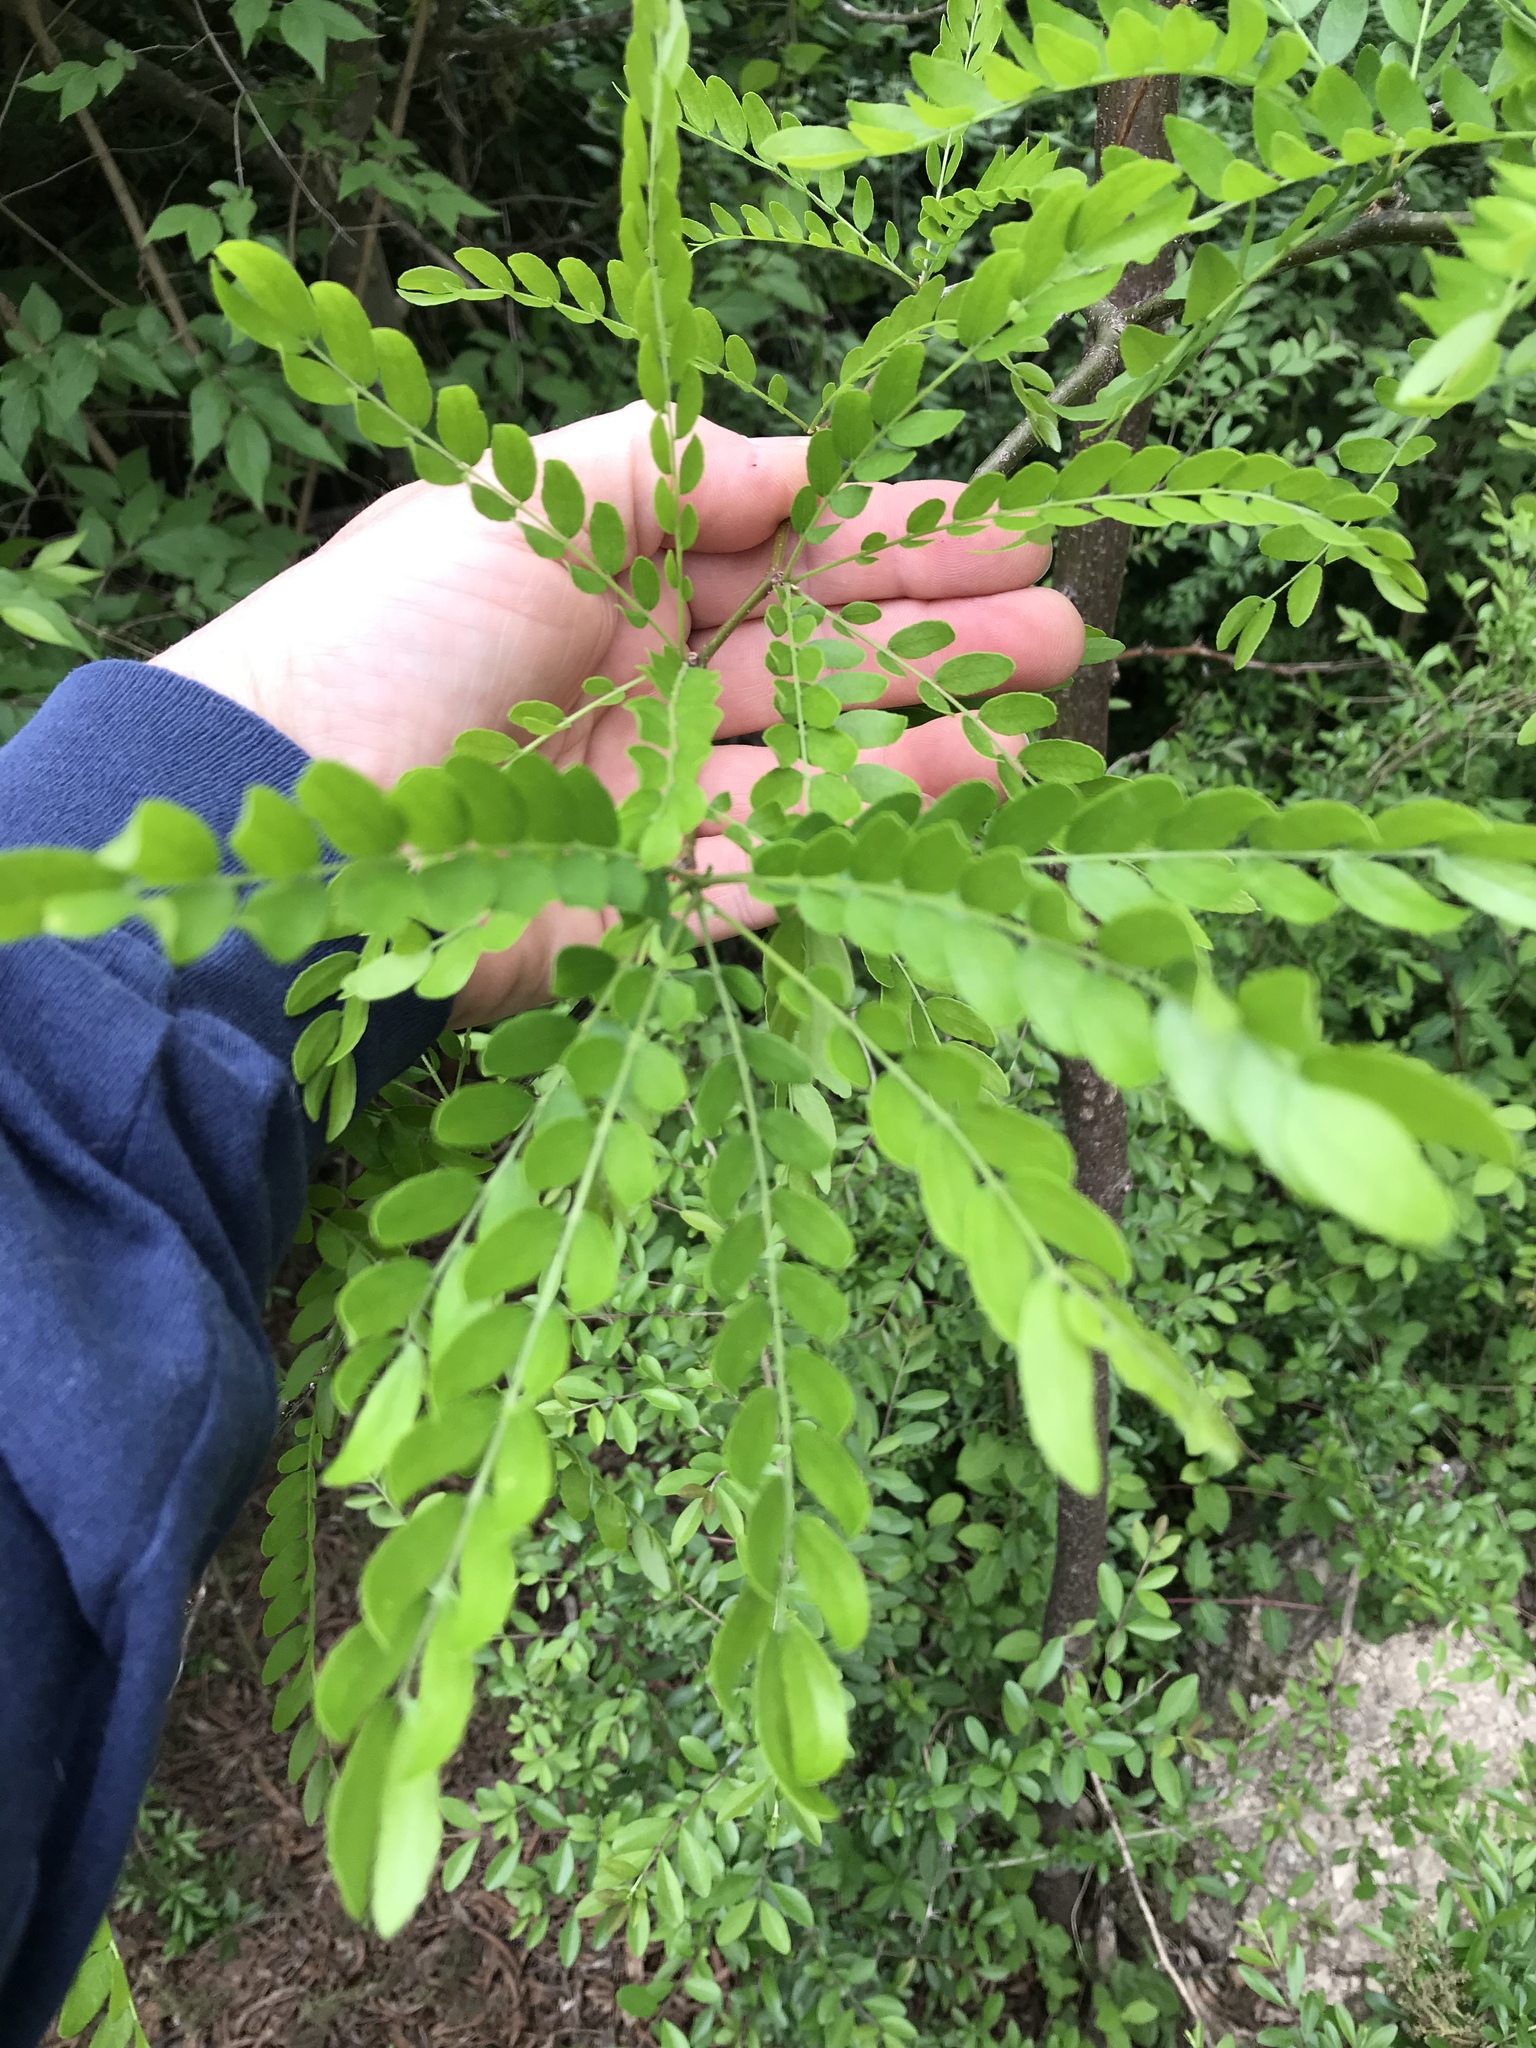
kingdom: Plantae
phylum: Tracheophyta
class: Magnoliopsida
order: Fabales
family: Fabaceae
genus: Gleditsia
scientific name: Gleditsia triacanthos
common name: Common honeylocust
